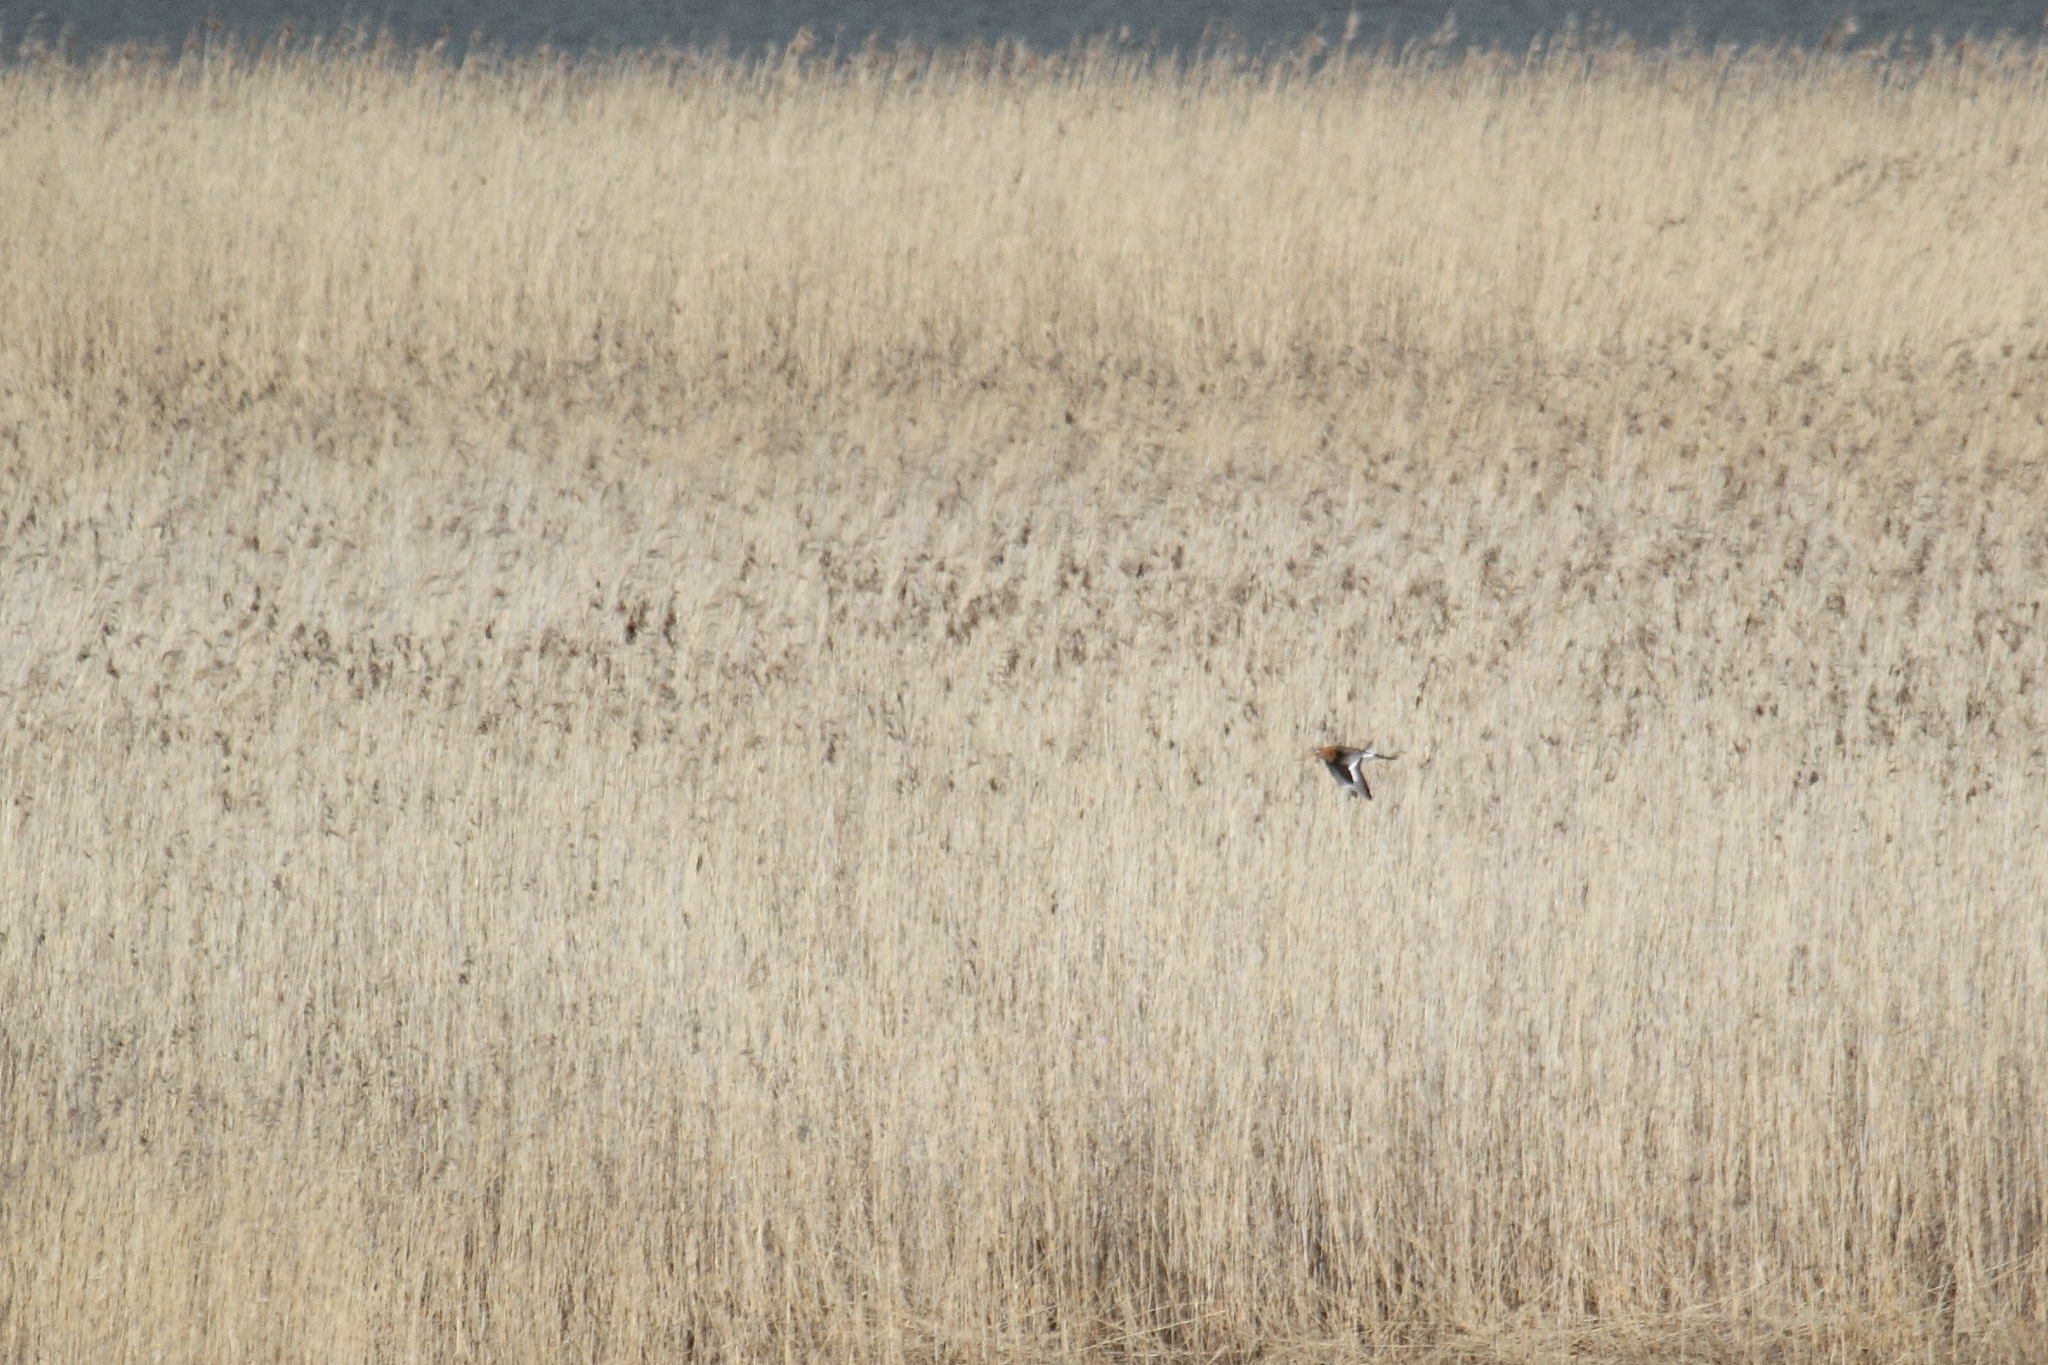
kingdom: Animalia
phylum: Chordata
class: Aves
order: Charadriiformes
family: Scolopacidae
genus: Limosa
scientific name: Limosa limosa
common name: Black-tailed godwit
